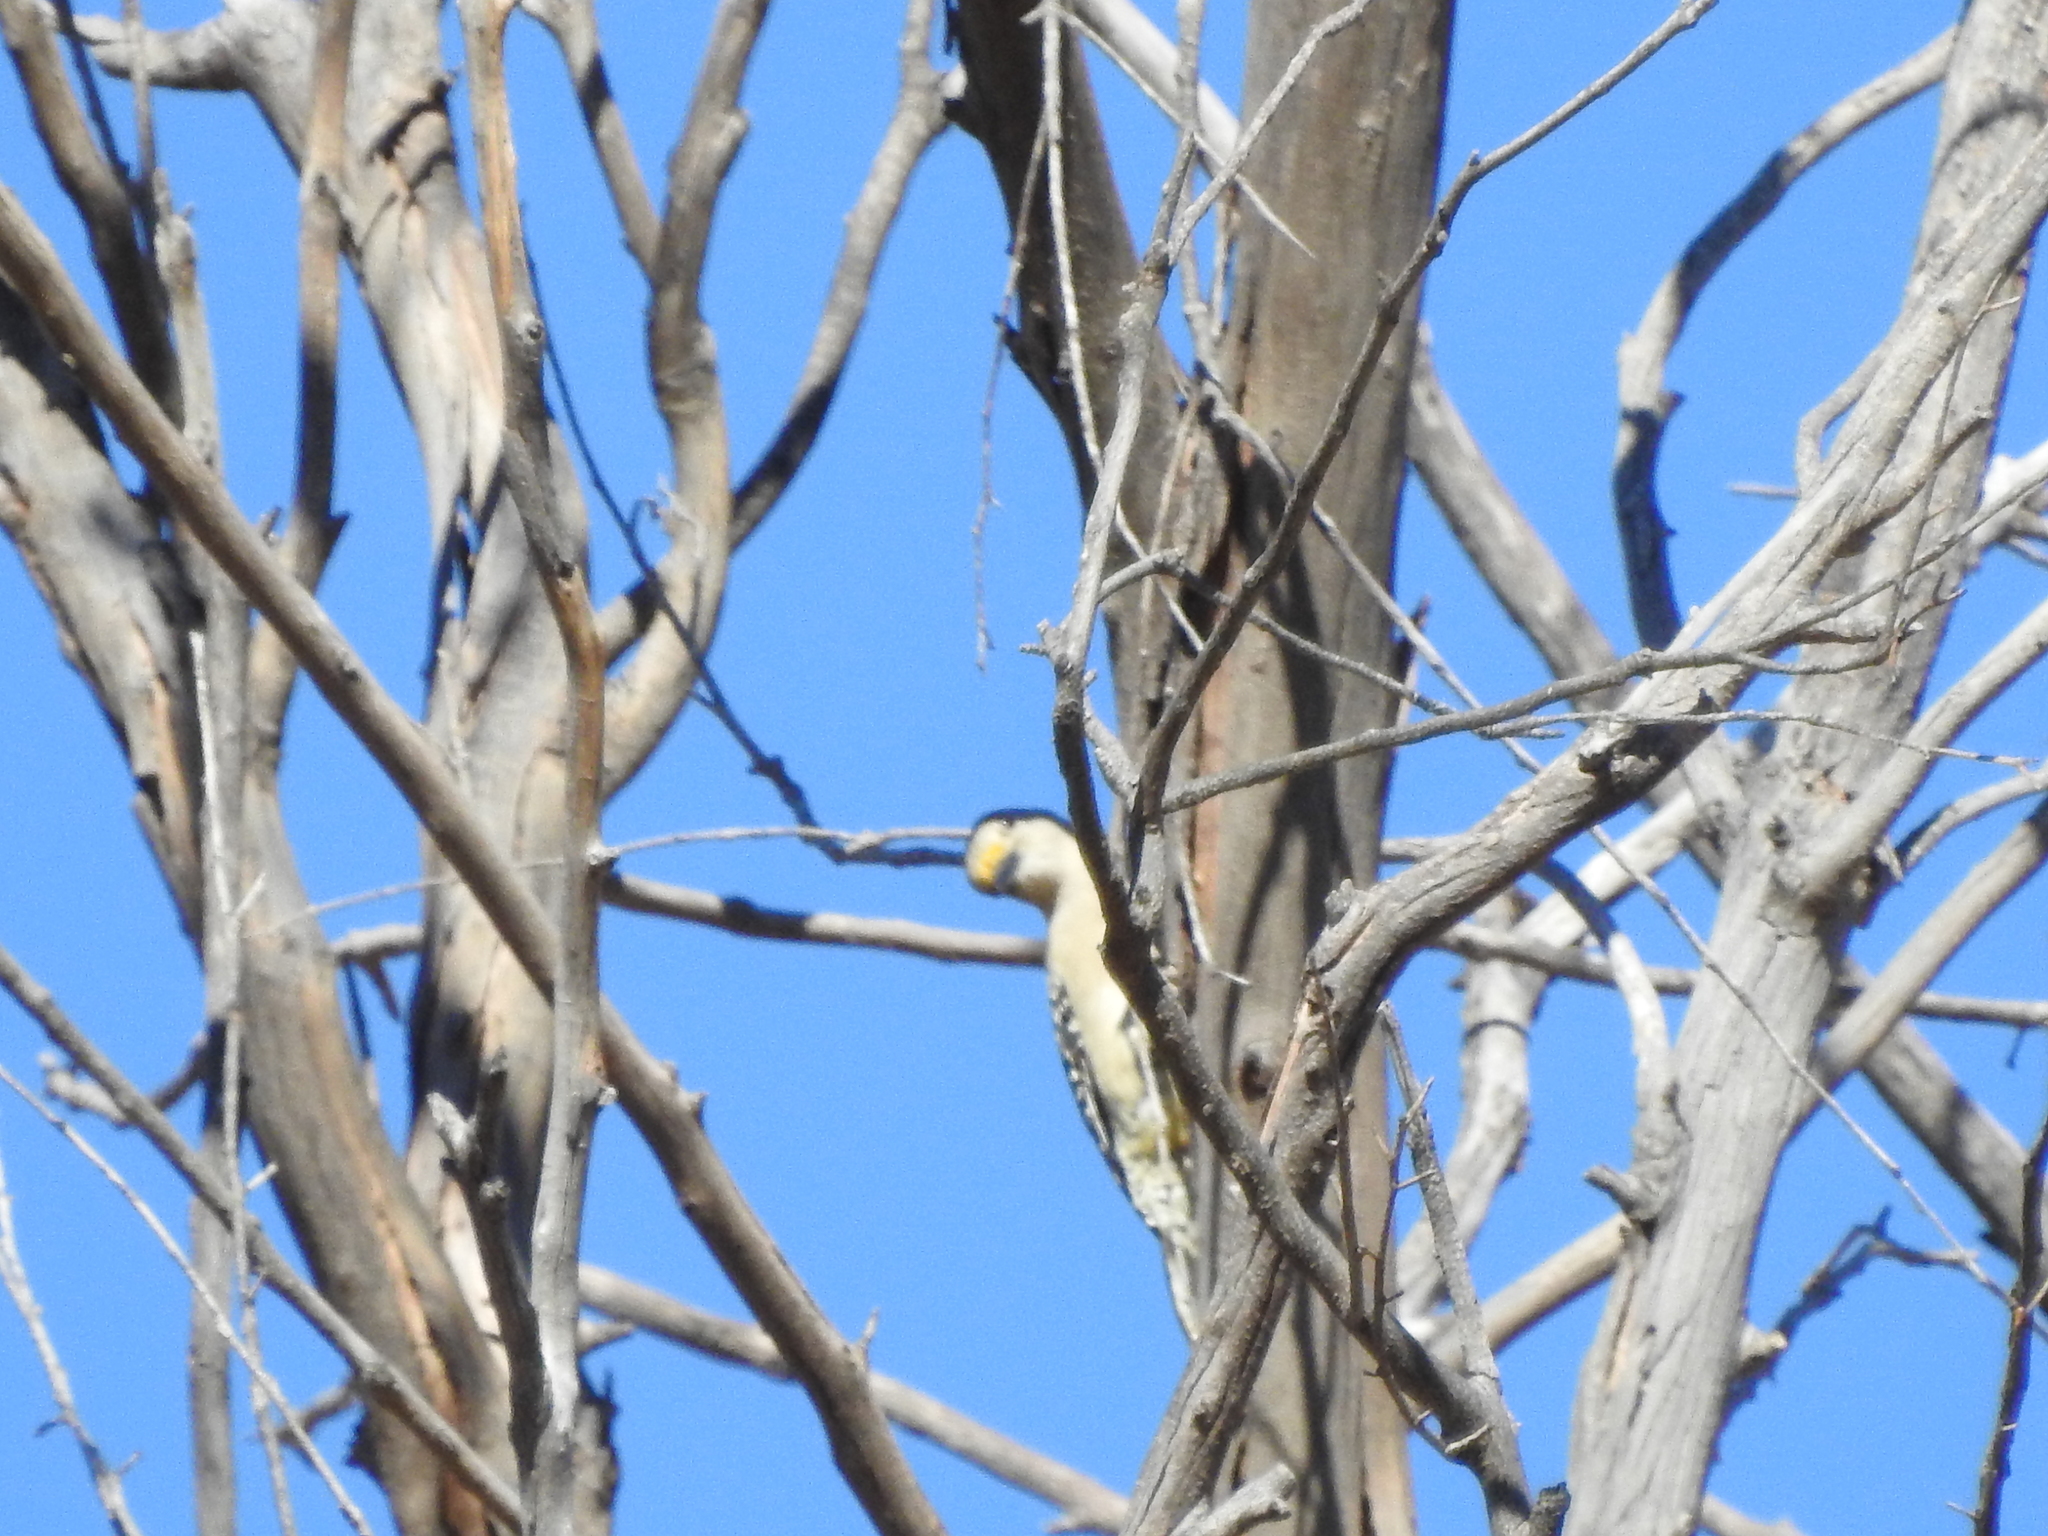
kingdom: Animalia
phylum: Chordata
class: Aves
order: Piciformes
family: Picidae
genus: Melanerpes
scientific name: Melanerpes aurifrons
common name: Golden-fronted woodpecker
